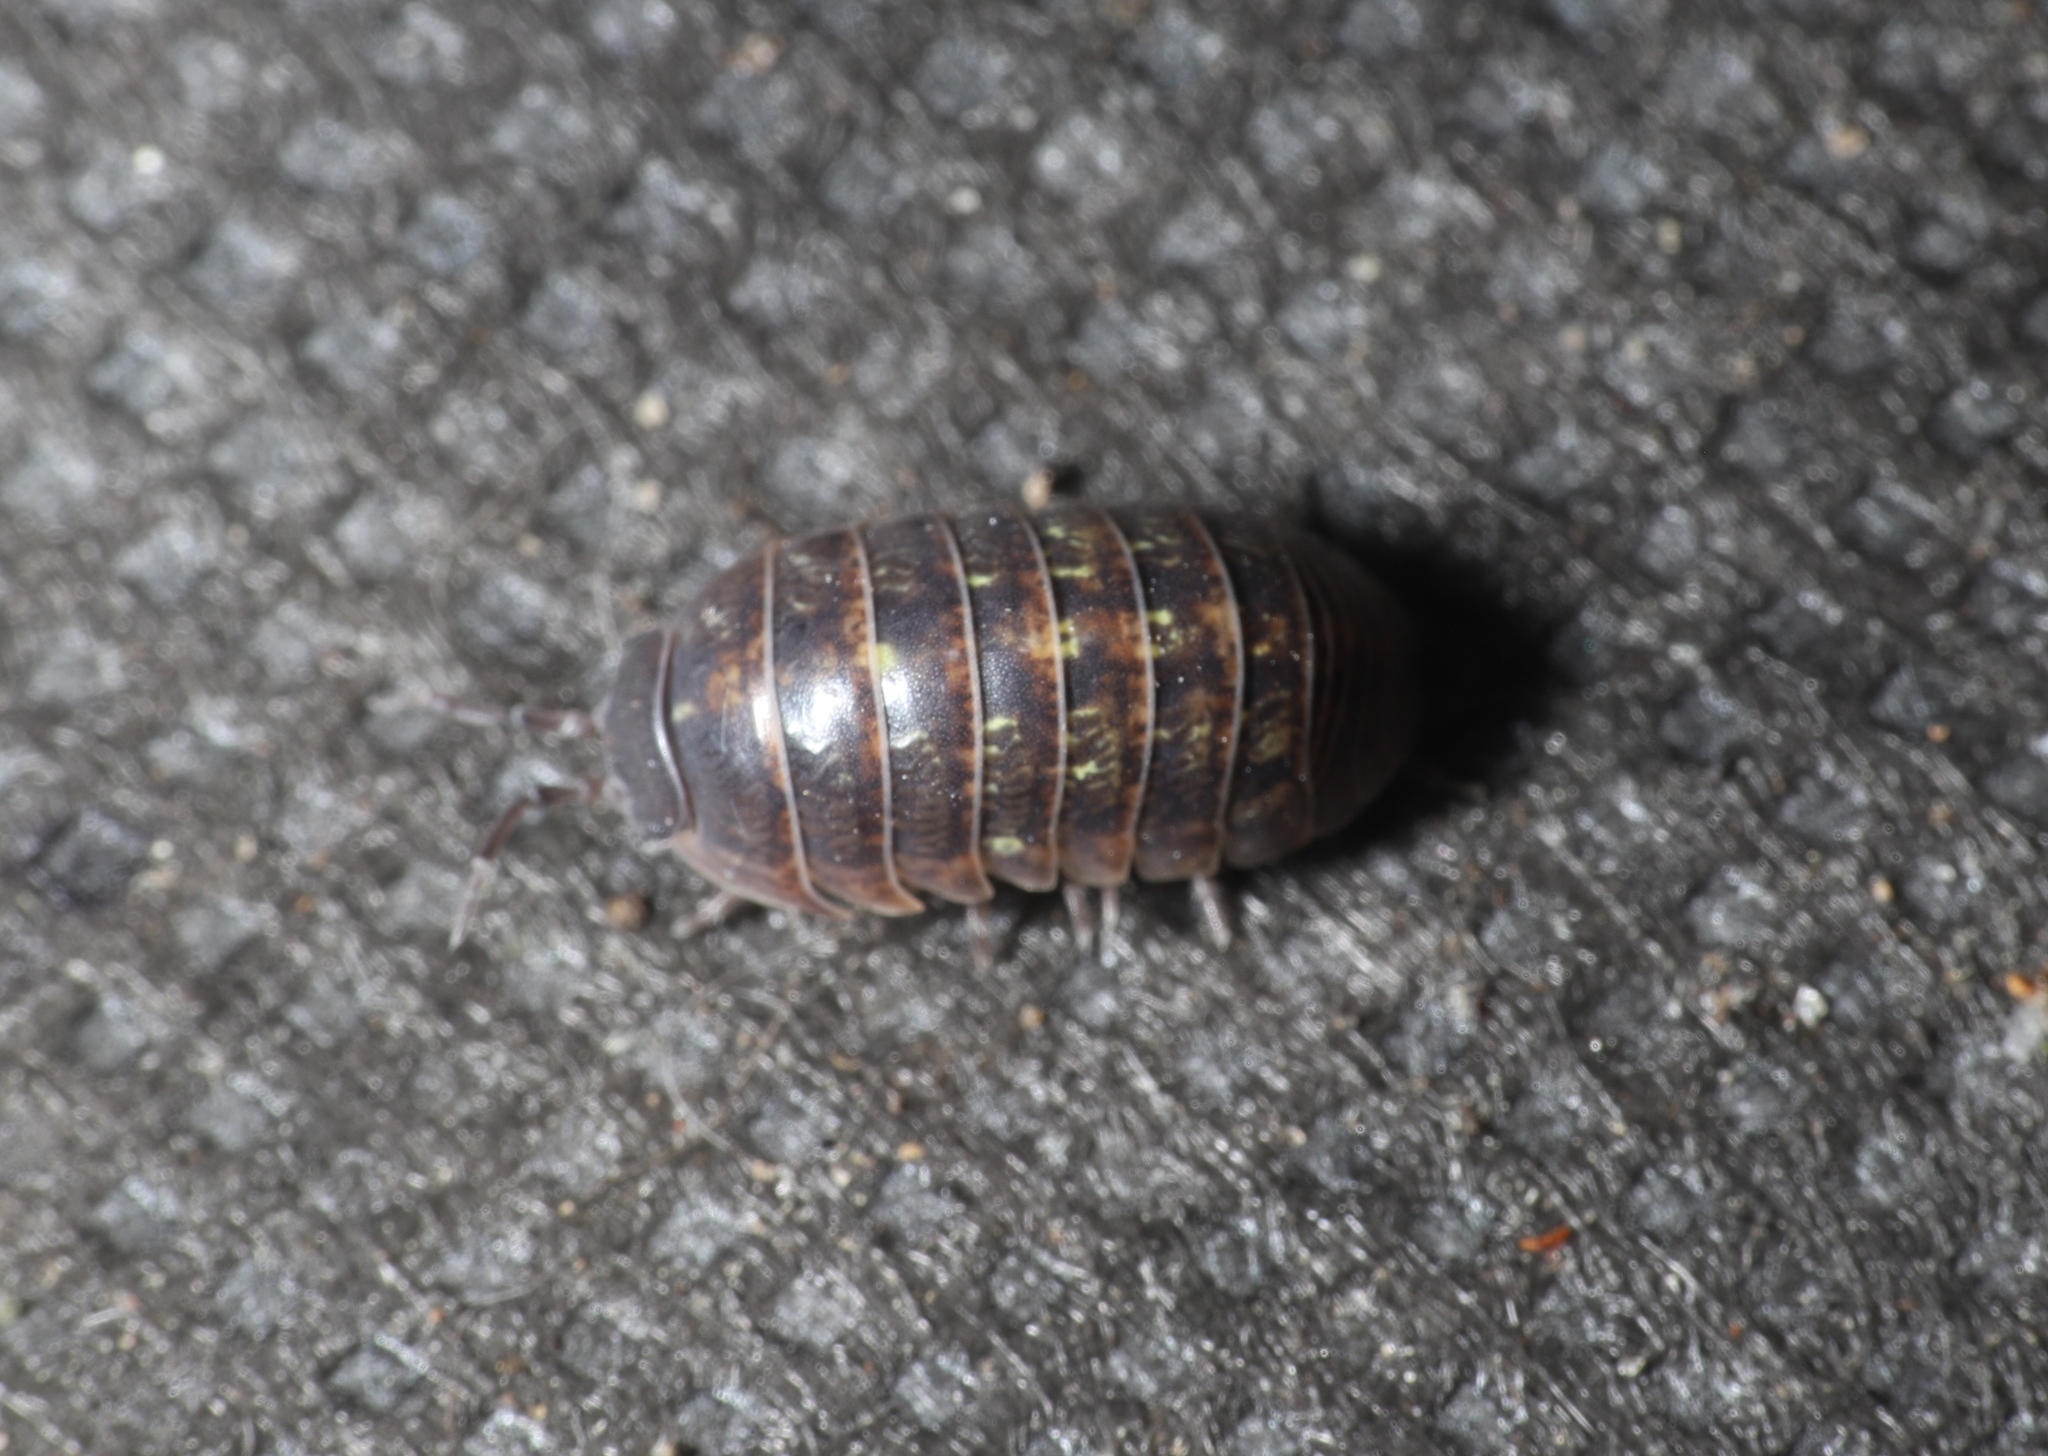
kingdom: Animalia
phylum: Arthropoda
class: Malacostraca
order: Isopoda
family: Armadillidiidae
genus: Armadillidium
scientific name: Armadillidium vulgare
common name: Common pill woodlouse
